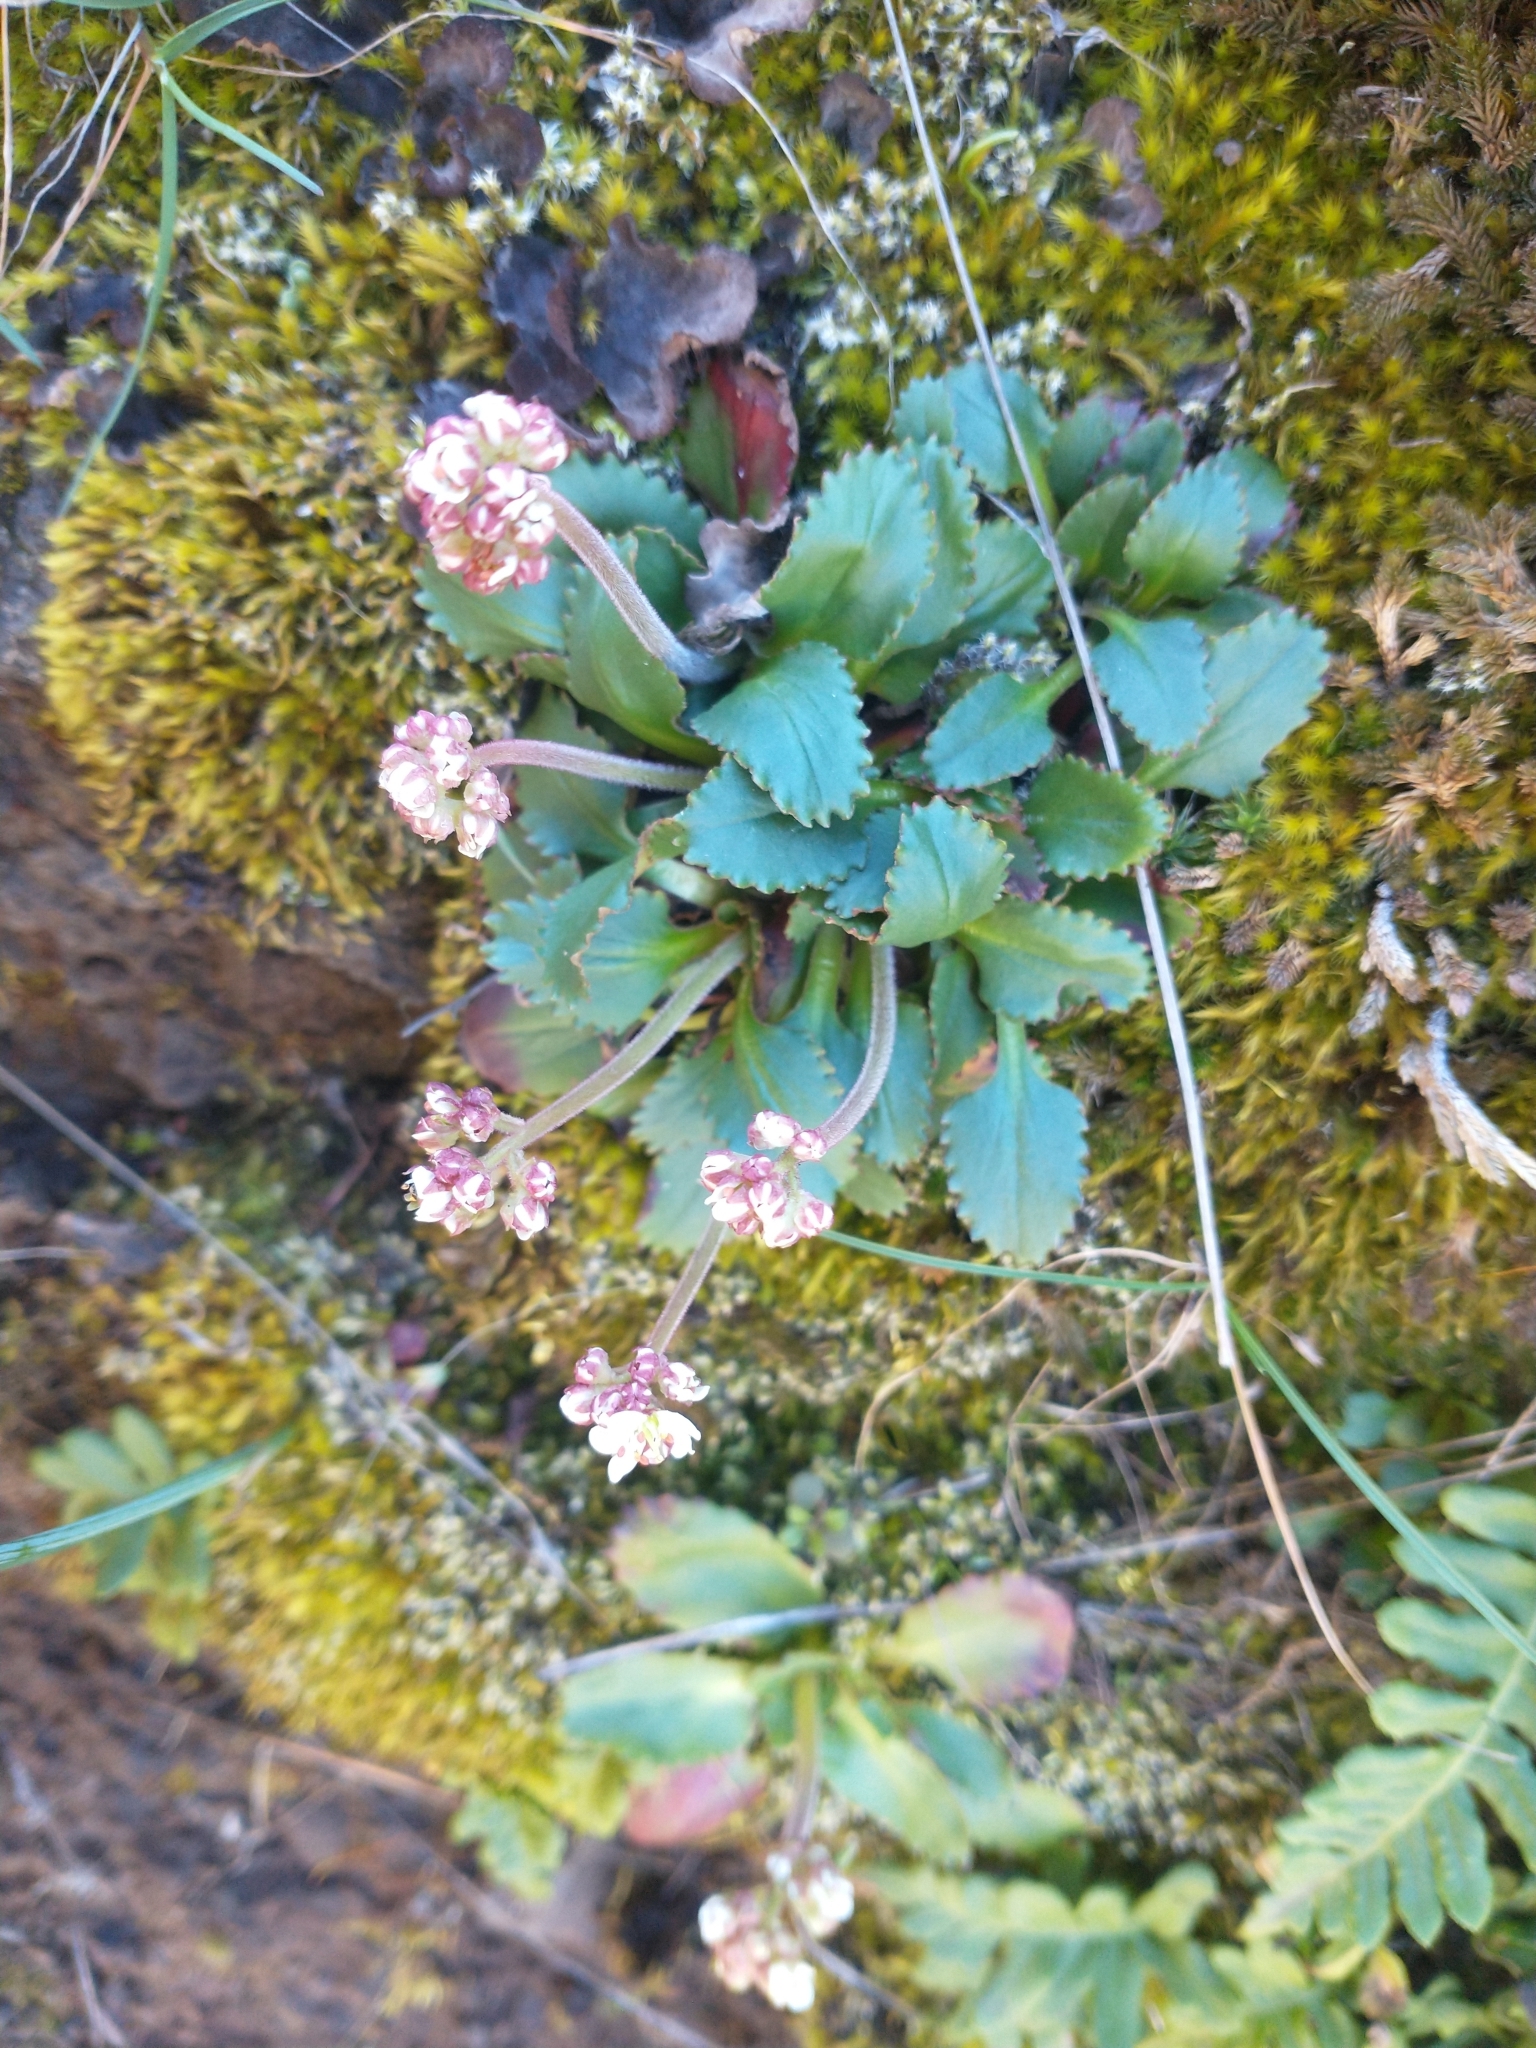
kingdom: Plantae
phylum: Tracheophyta
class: Magnoliopsida
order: Saxifragales
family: Saxifragaceae
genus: Micranthes
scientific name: Micranthes rufidula
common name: Rustyhair saxifrage
